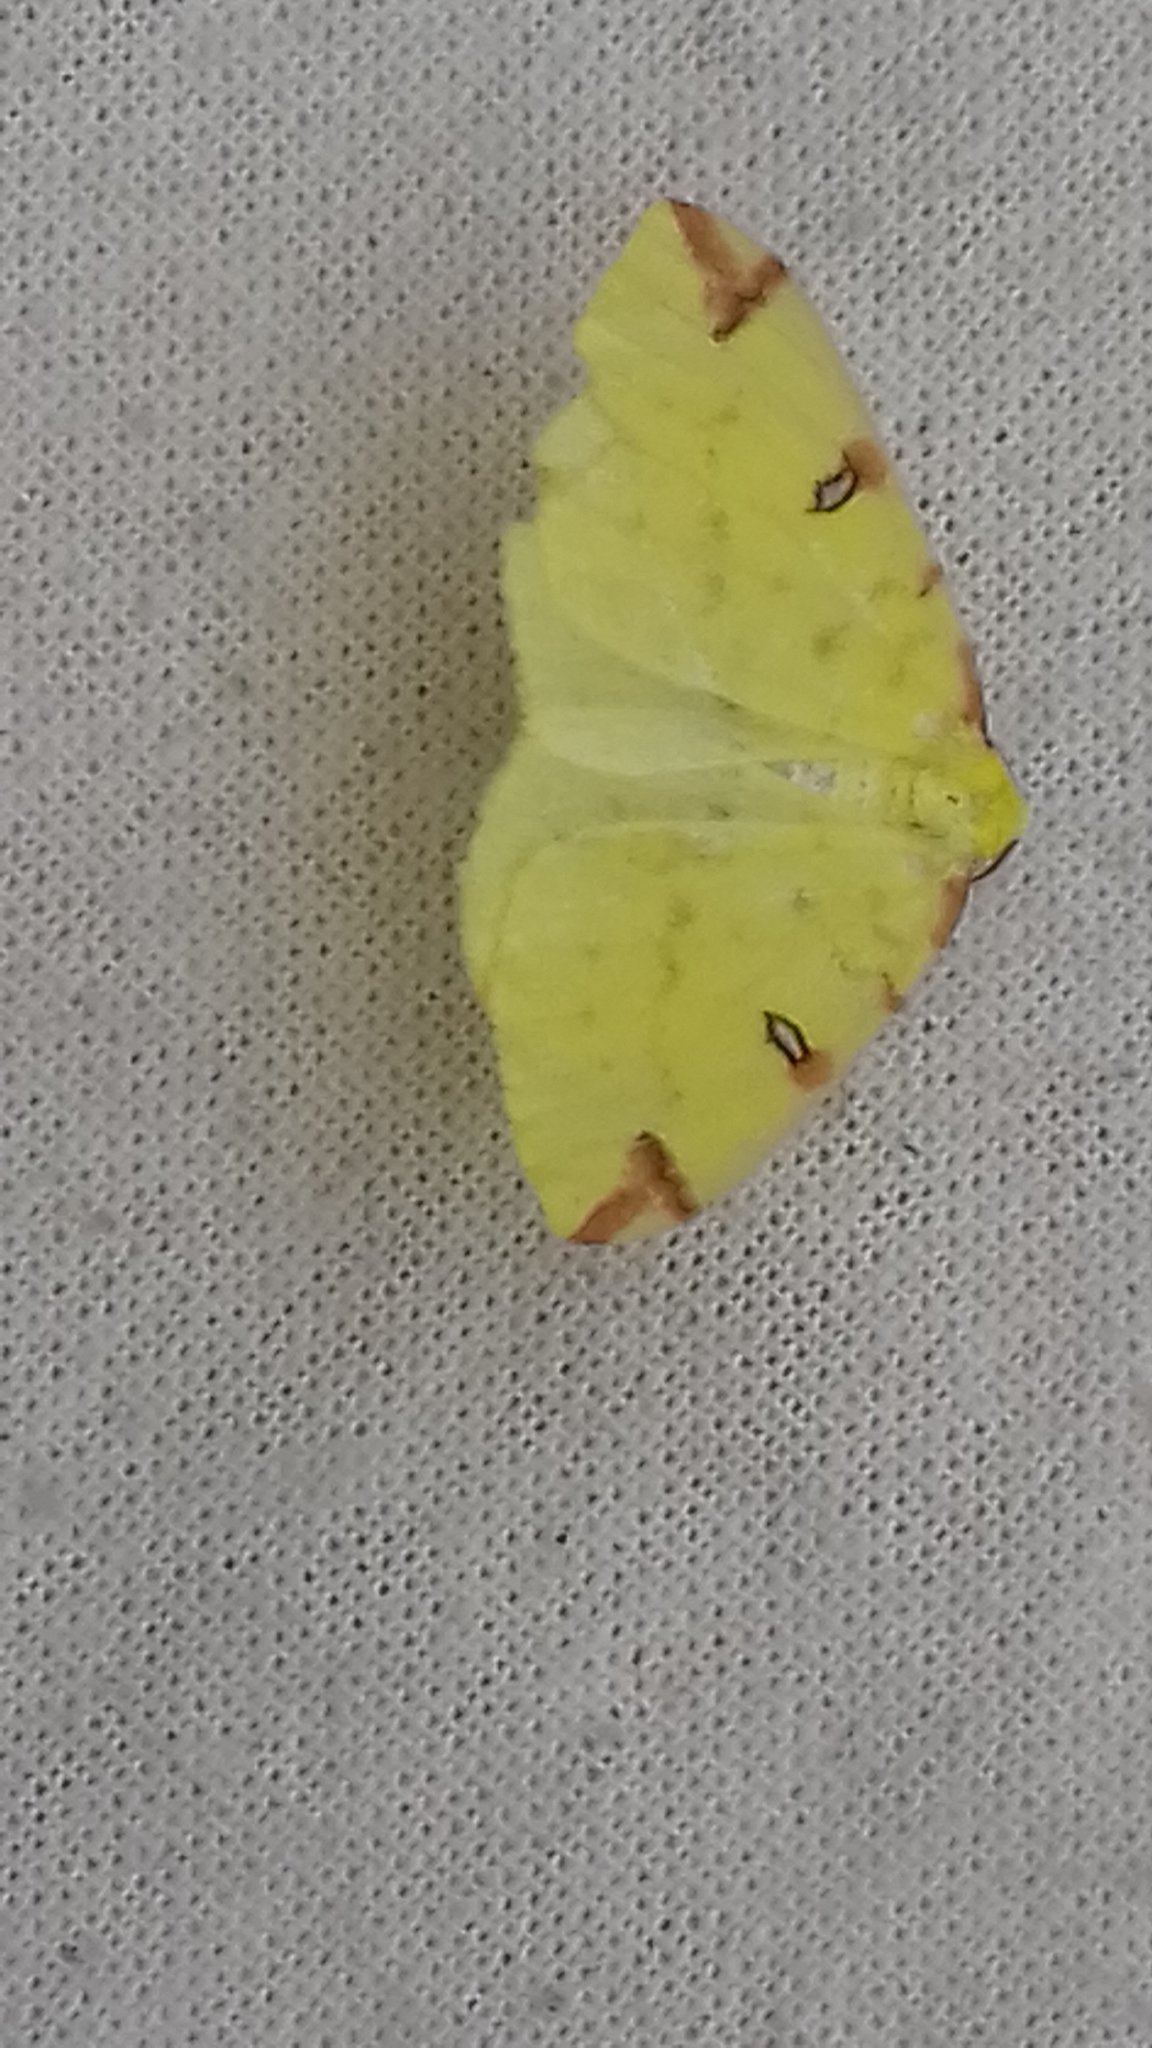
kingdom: Animalia
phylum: Arthropoda
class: Insecta
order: Lepidoptera
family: Geometridae
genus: Opisthograptis
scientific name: Opisthograptis luteolata
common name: Brimstone moth
